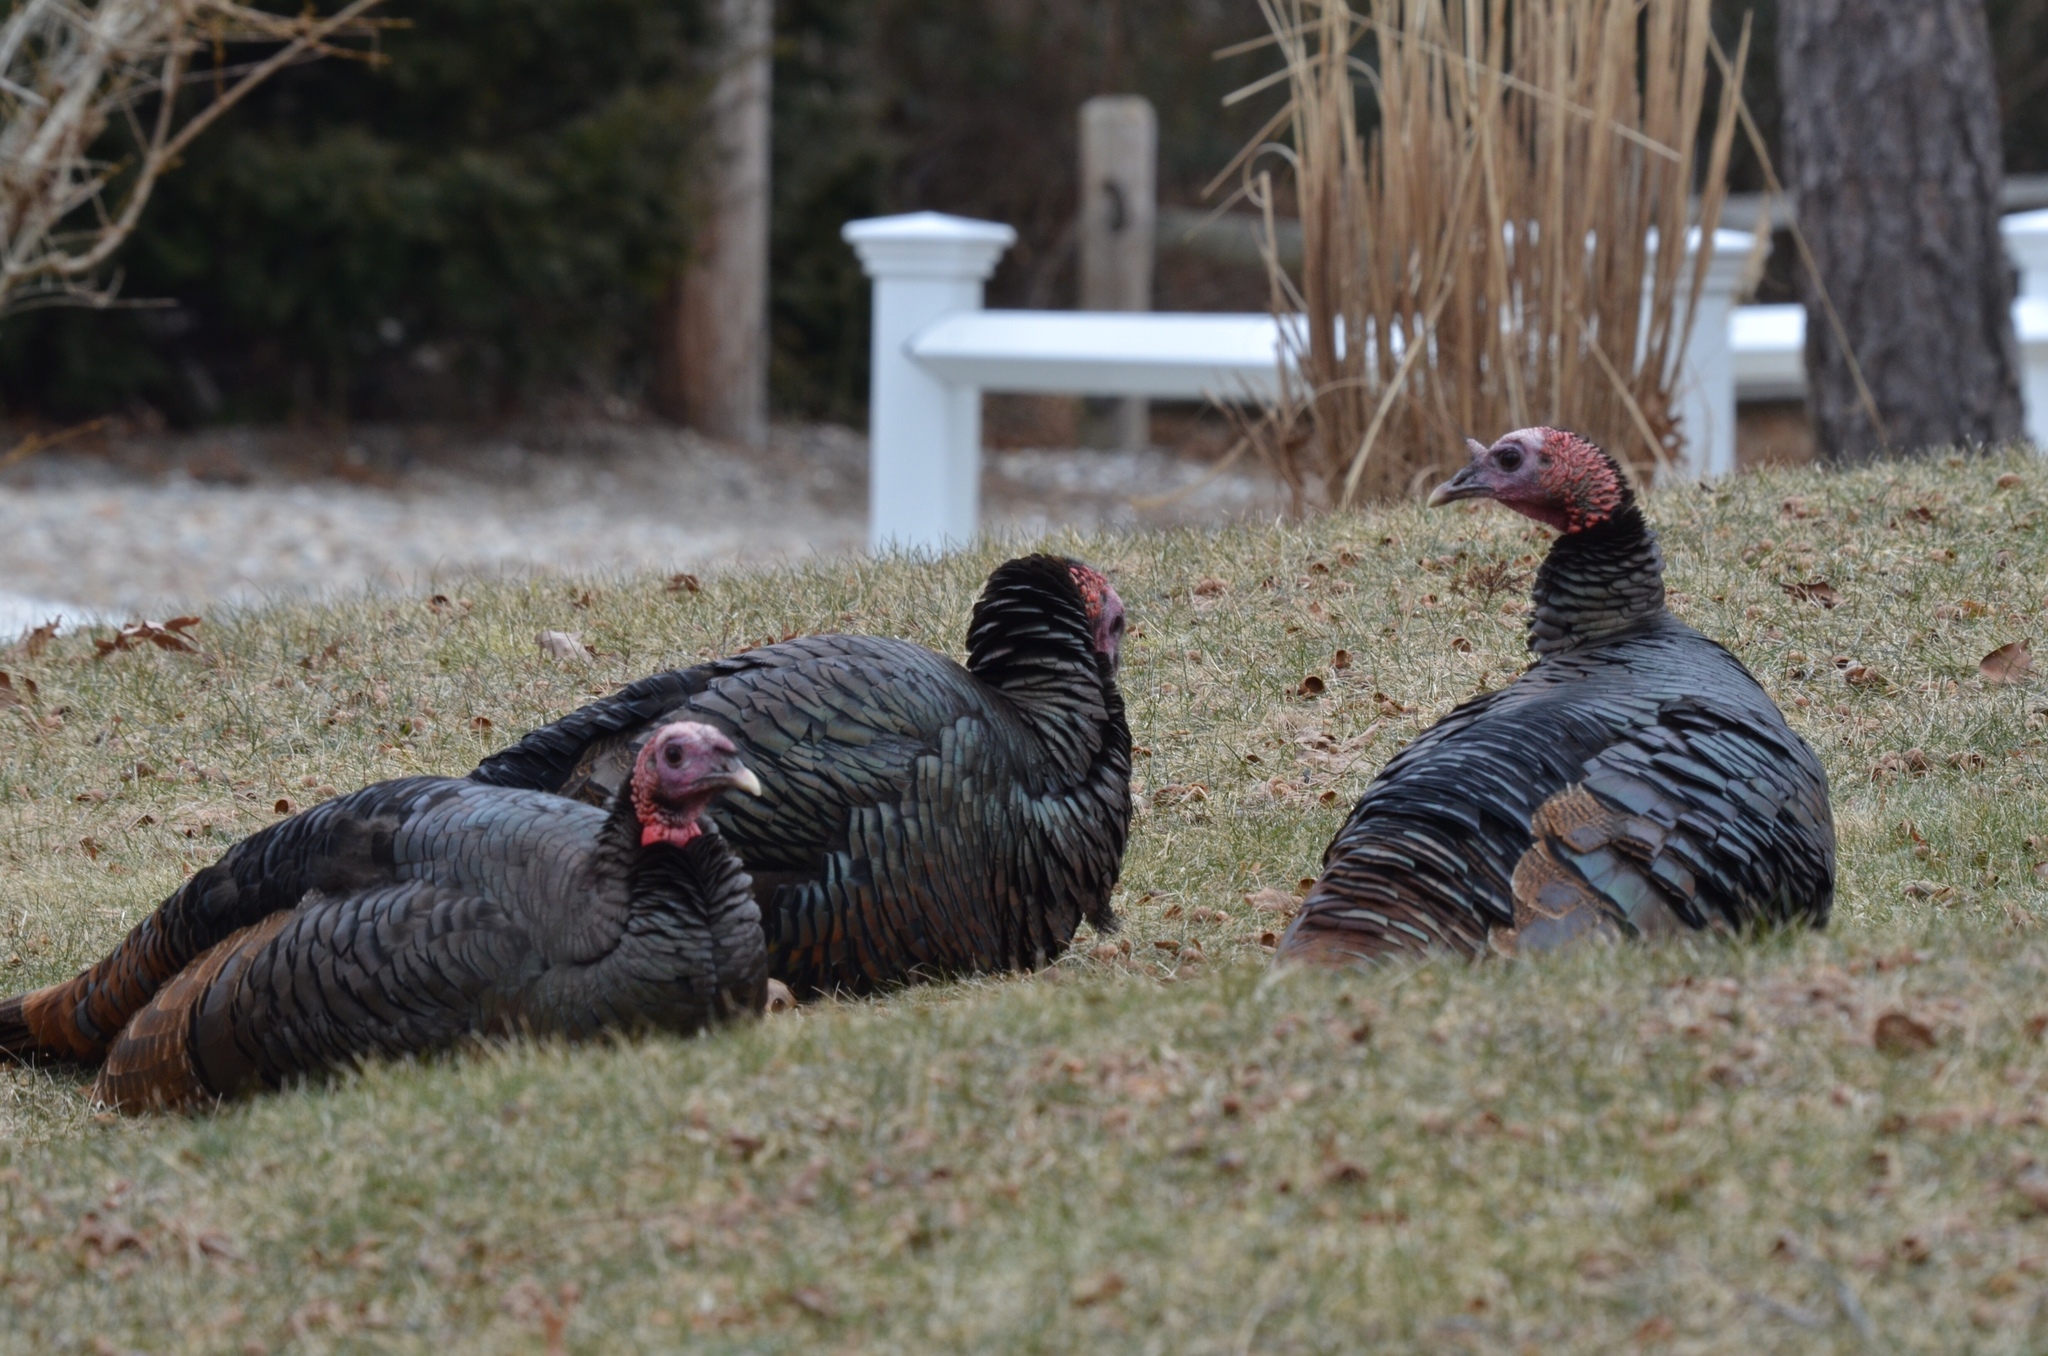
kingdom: Animalia
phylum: Chordata
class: Aves
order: Galliformes
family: Phasianidae
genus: Meleagris
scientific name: Meleagris gallopavo
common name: Wild turkey
